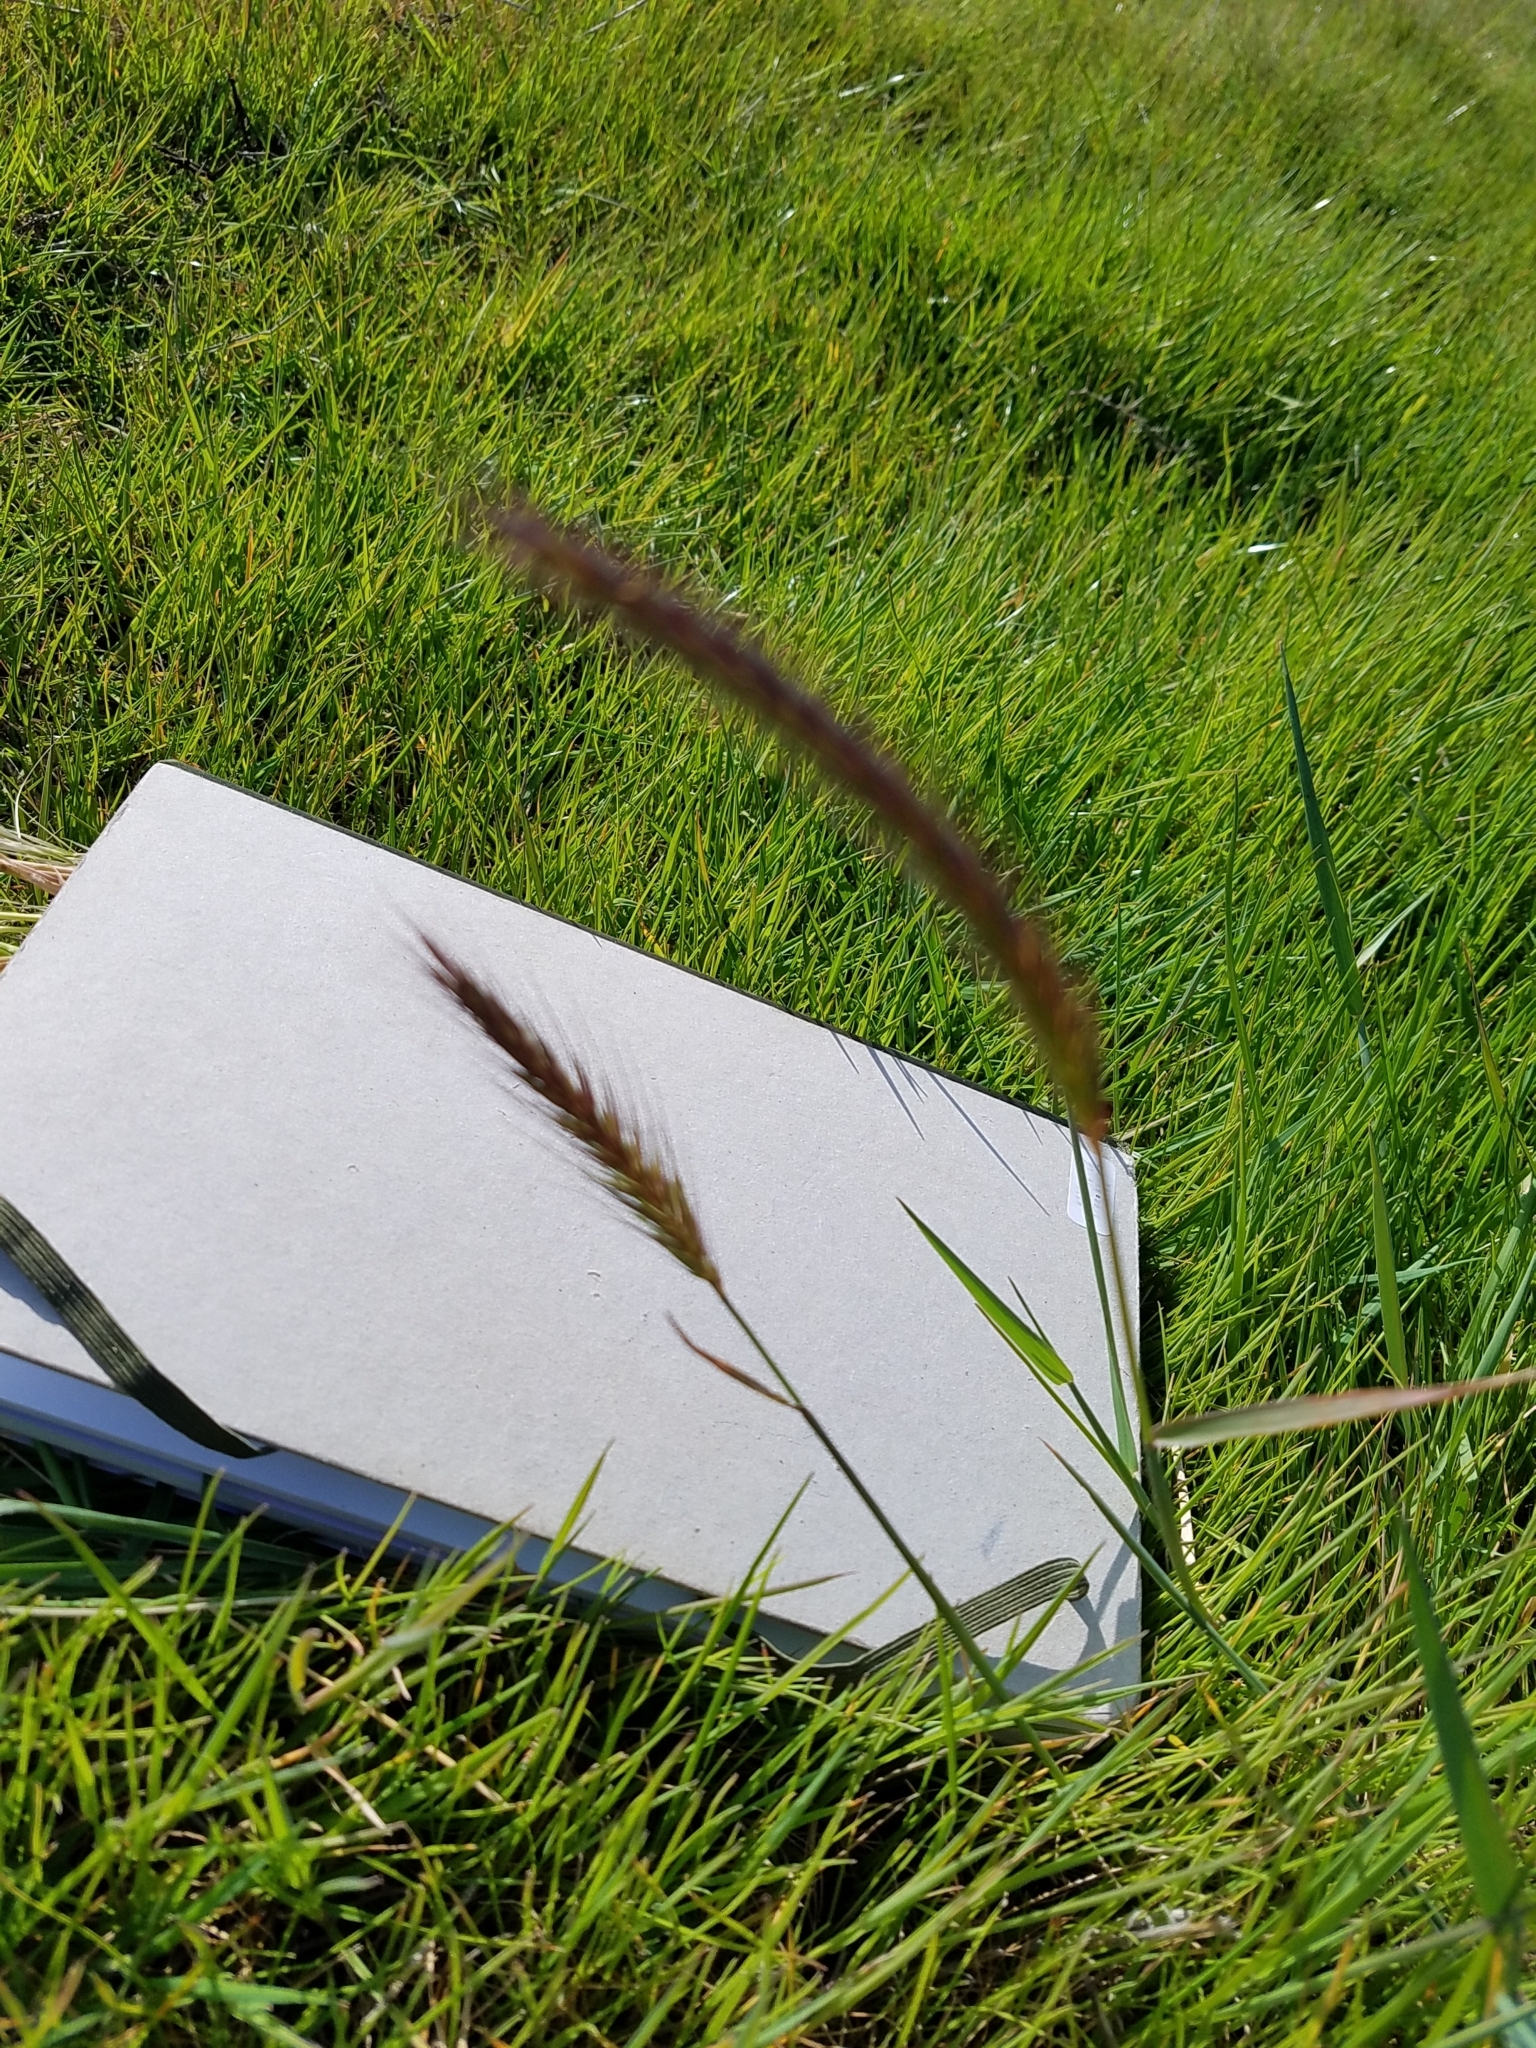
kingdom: Plantae
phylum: Tracheophyta
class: Liliopsida
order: Poales
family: Poaceae
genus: Hordeum
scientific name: Hordeum brachyantherum
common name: Meadow barley
